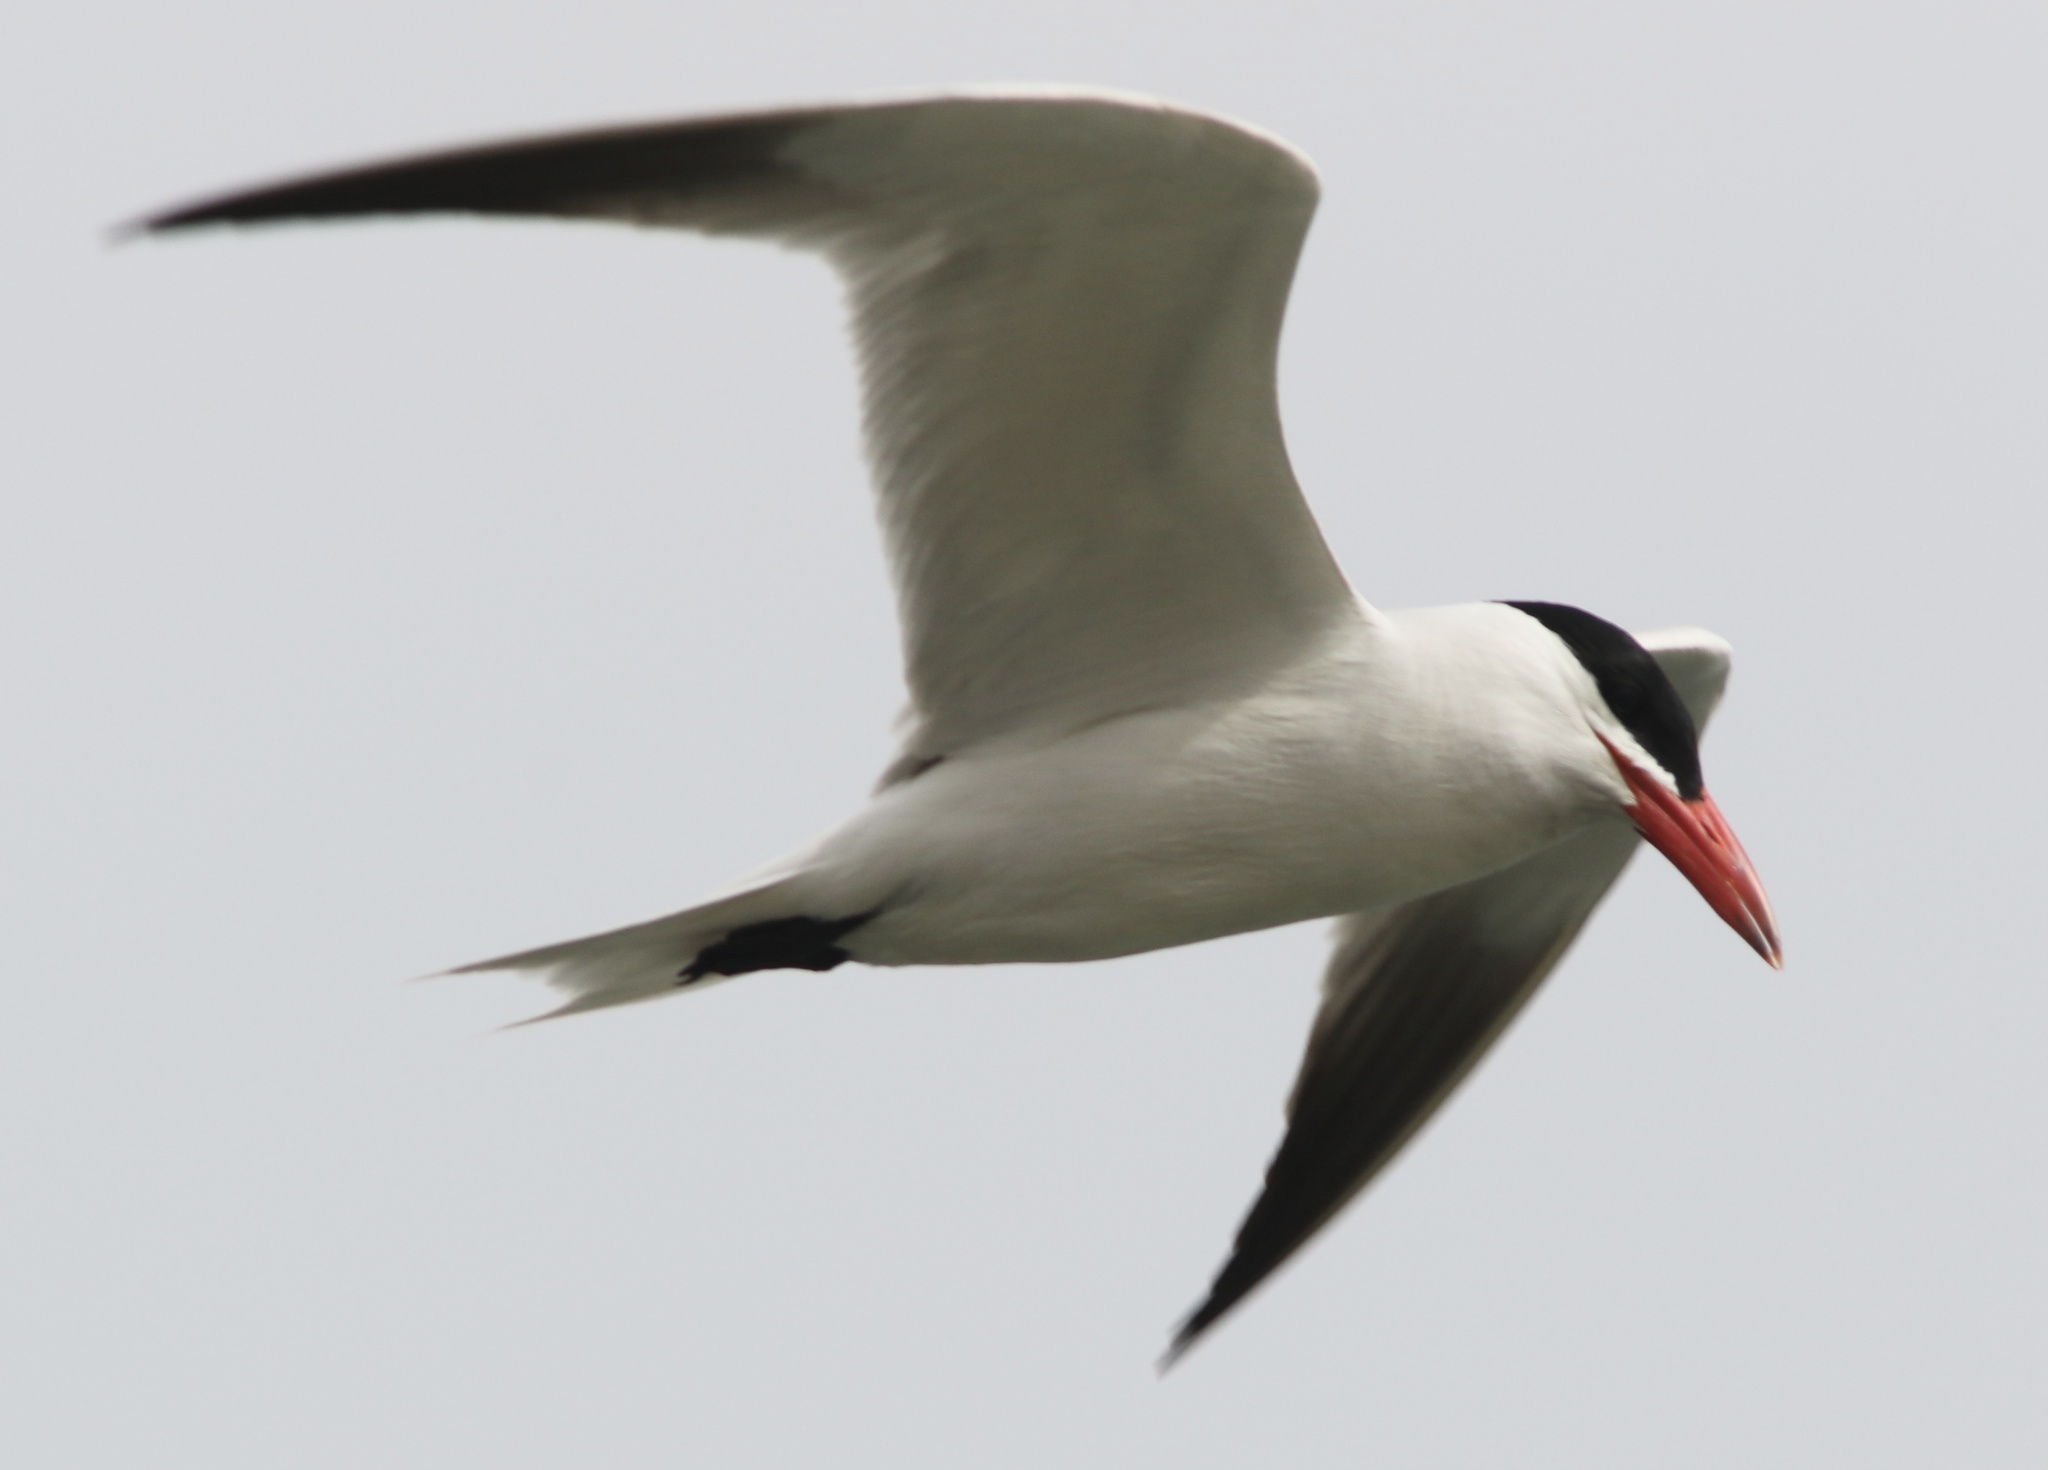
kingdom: Animalia
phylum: Chordata
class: Aves
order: Charadriiformes
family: Laridae
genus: Hydroprogne
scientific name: Hydroprogne caspia
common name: Caspian tern
